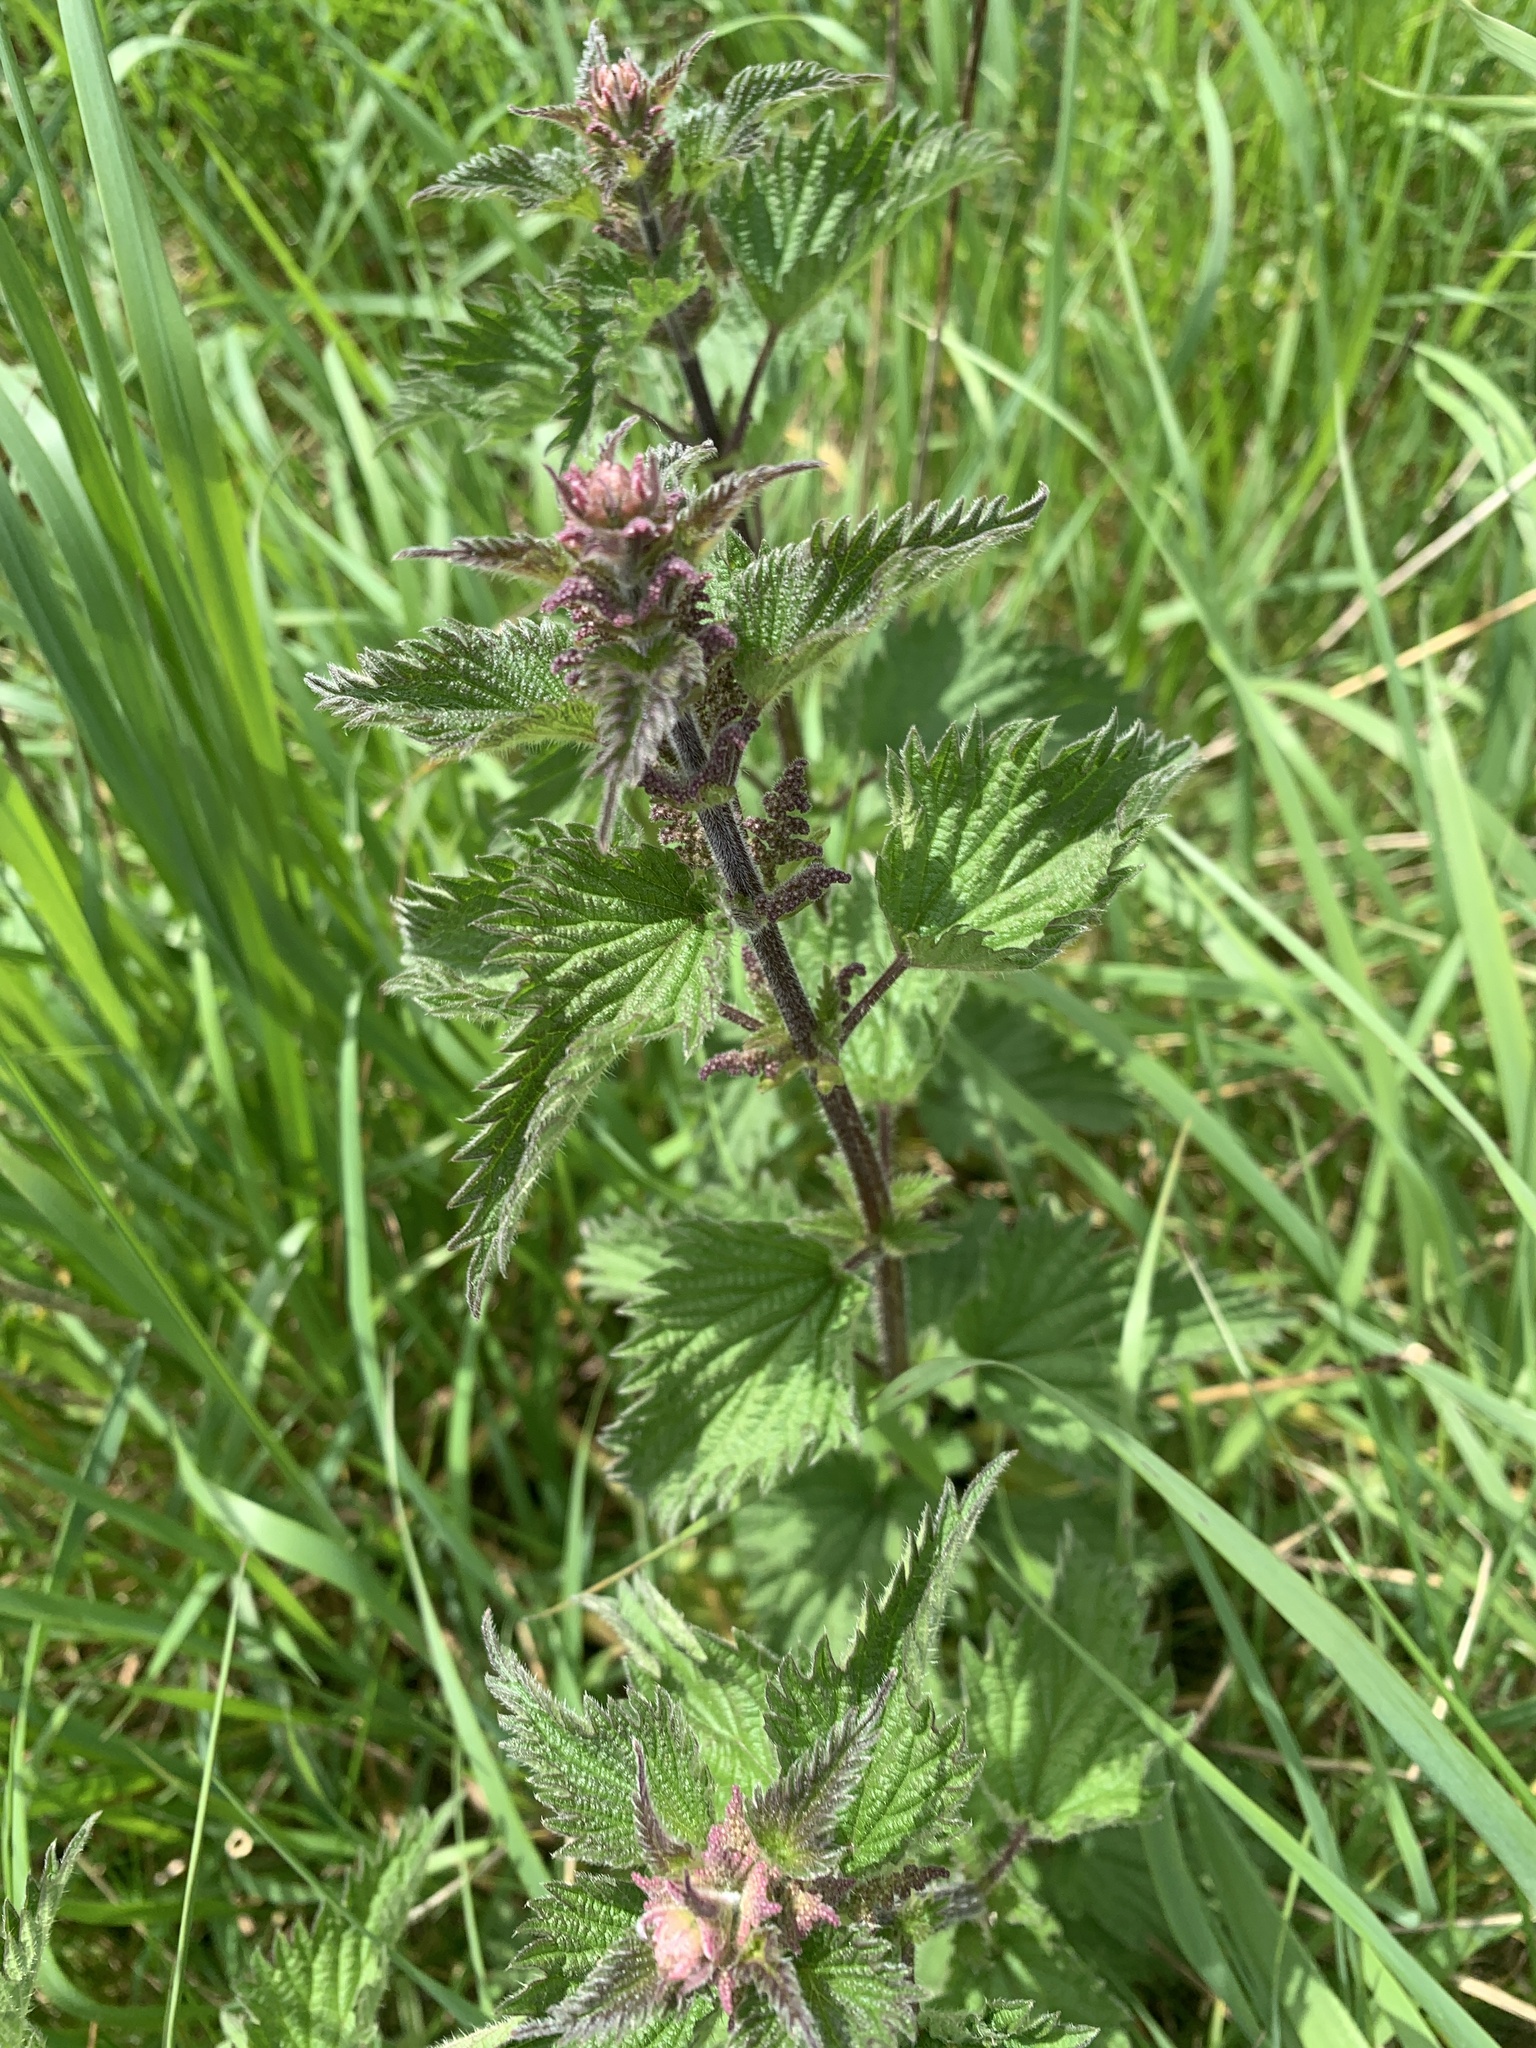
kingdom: Plantae
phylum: Tracheophyta
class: Magnoliopsida
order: Rosales
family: Urticaceae
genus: Urtica
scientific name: Urtica dioica
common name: Common nettle
